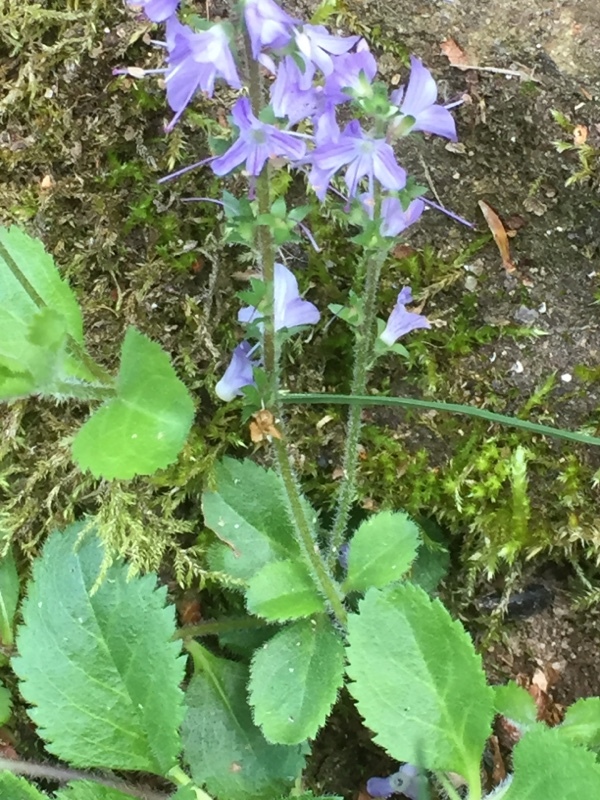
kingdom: Plantae
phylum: Tracheophyta
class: Magnoliopsida
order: Lamiales
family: Plantaginaceae
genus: Veronica
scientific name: Veronica officinalis
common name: Common speedwell
